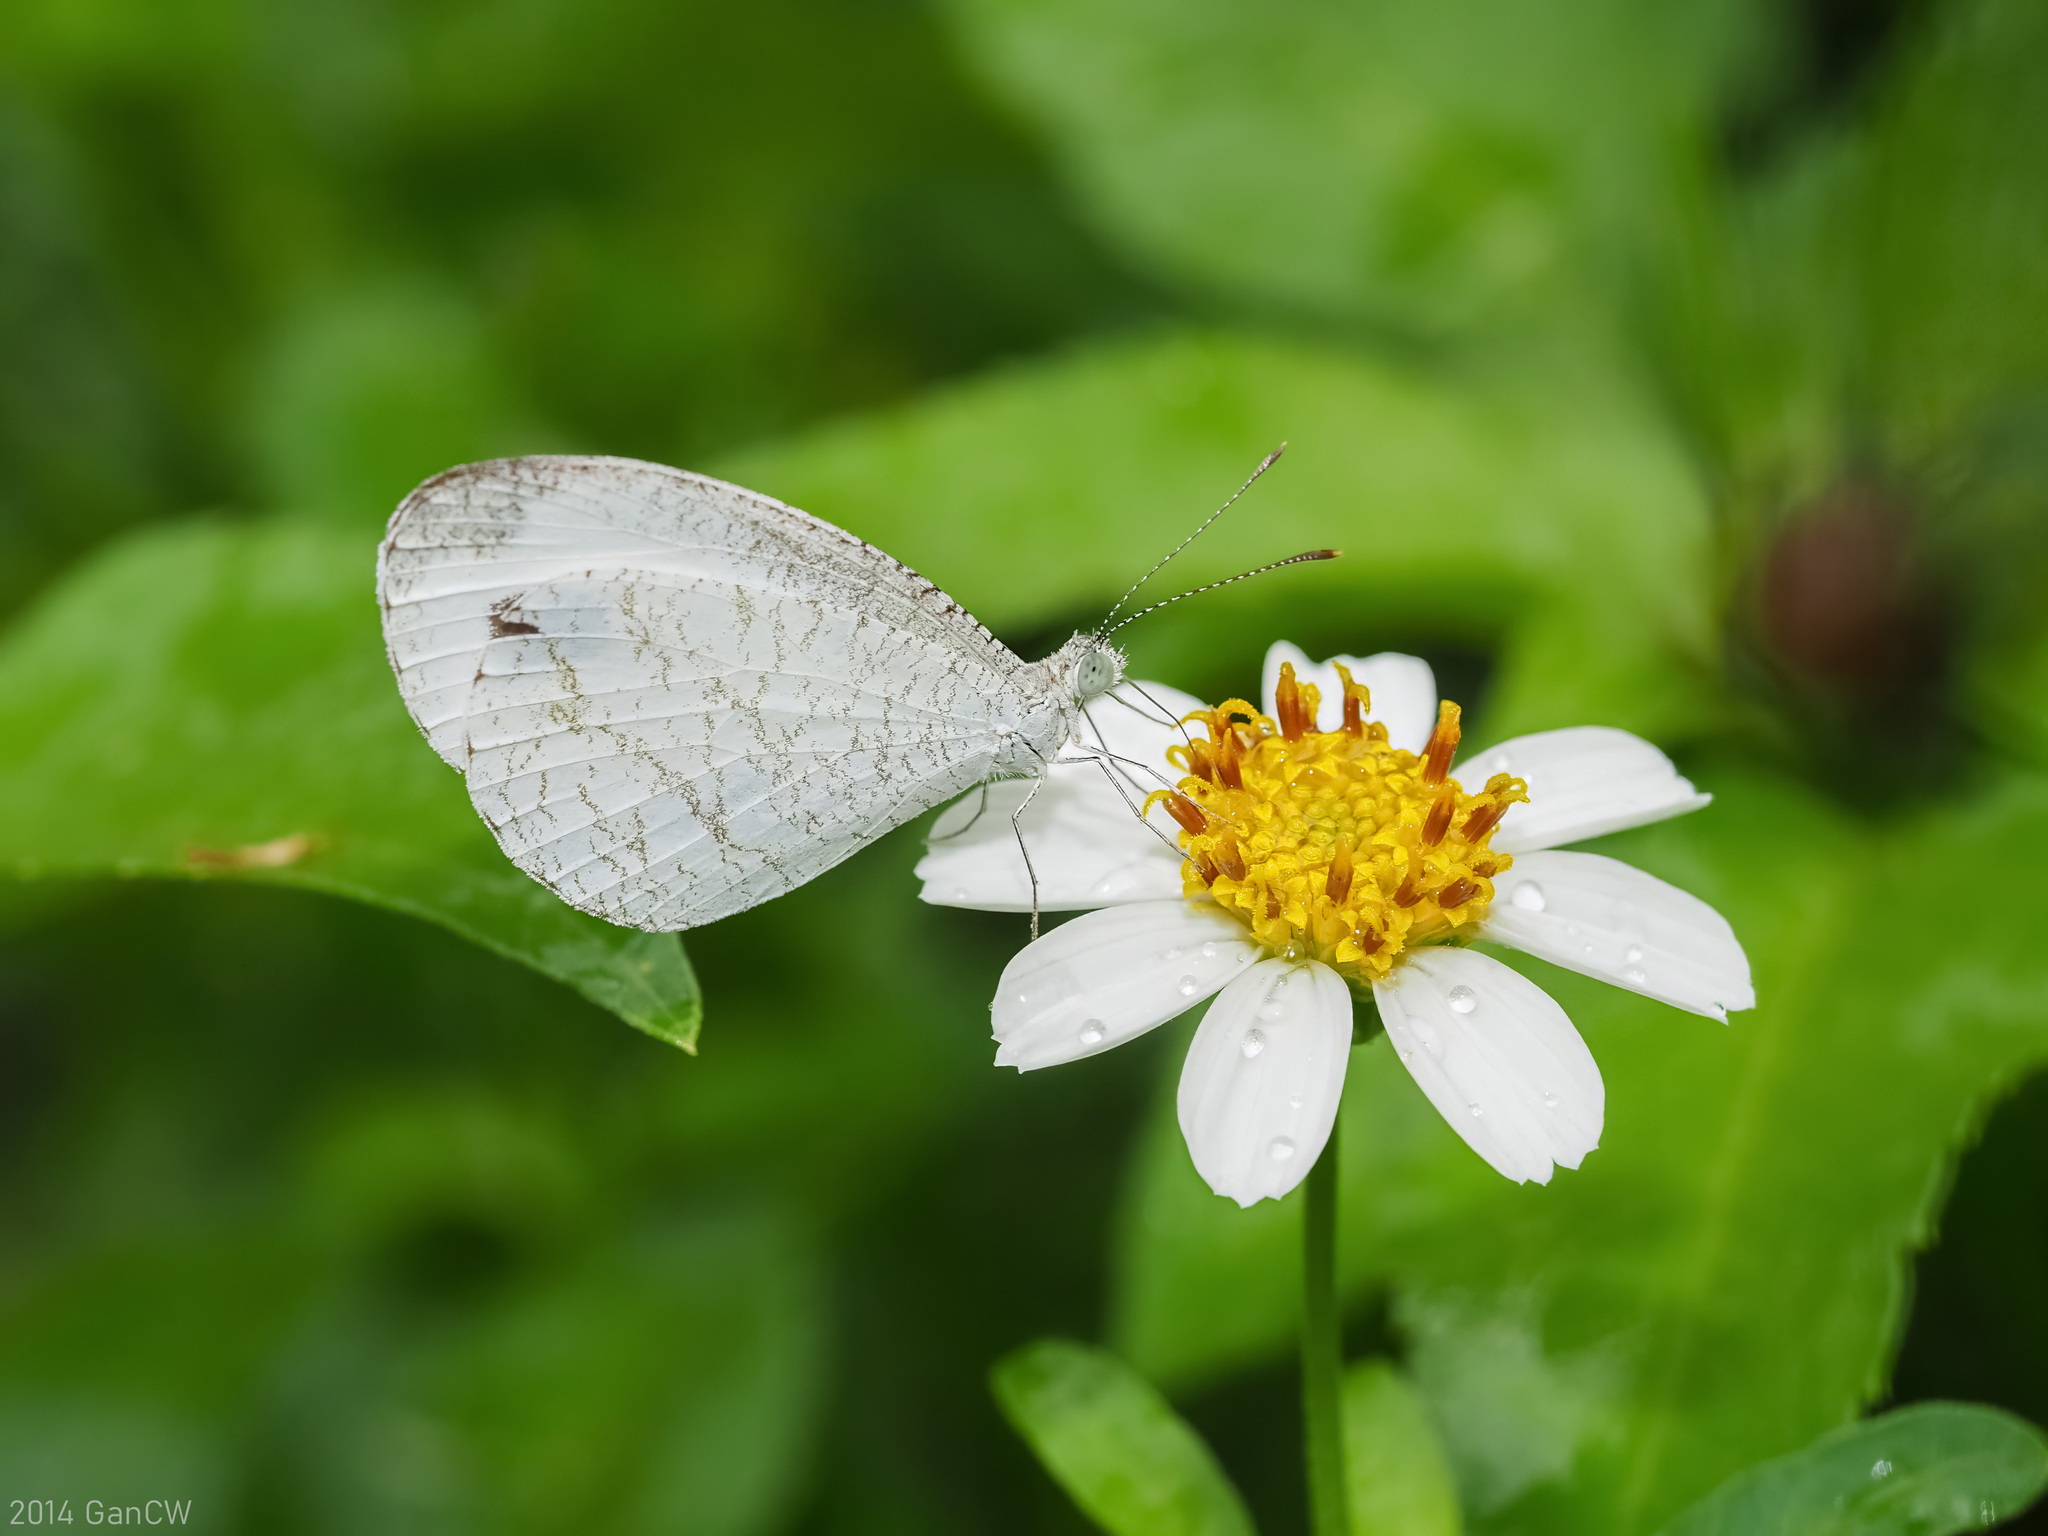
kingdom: Animalia
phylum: Arthropoda
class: Insecta
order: Lepidoptera
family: Pieridae
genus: Leptosia
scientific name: Leptosia nina
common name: Psyche
